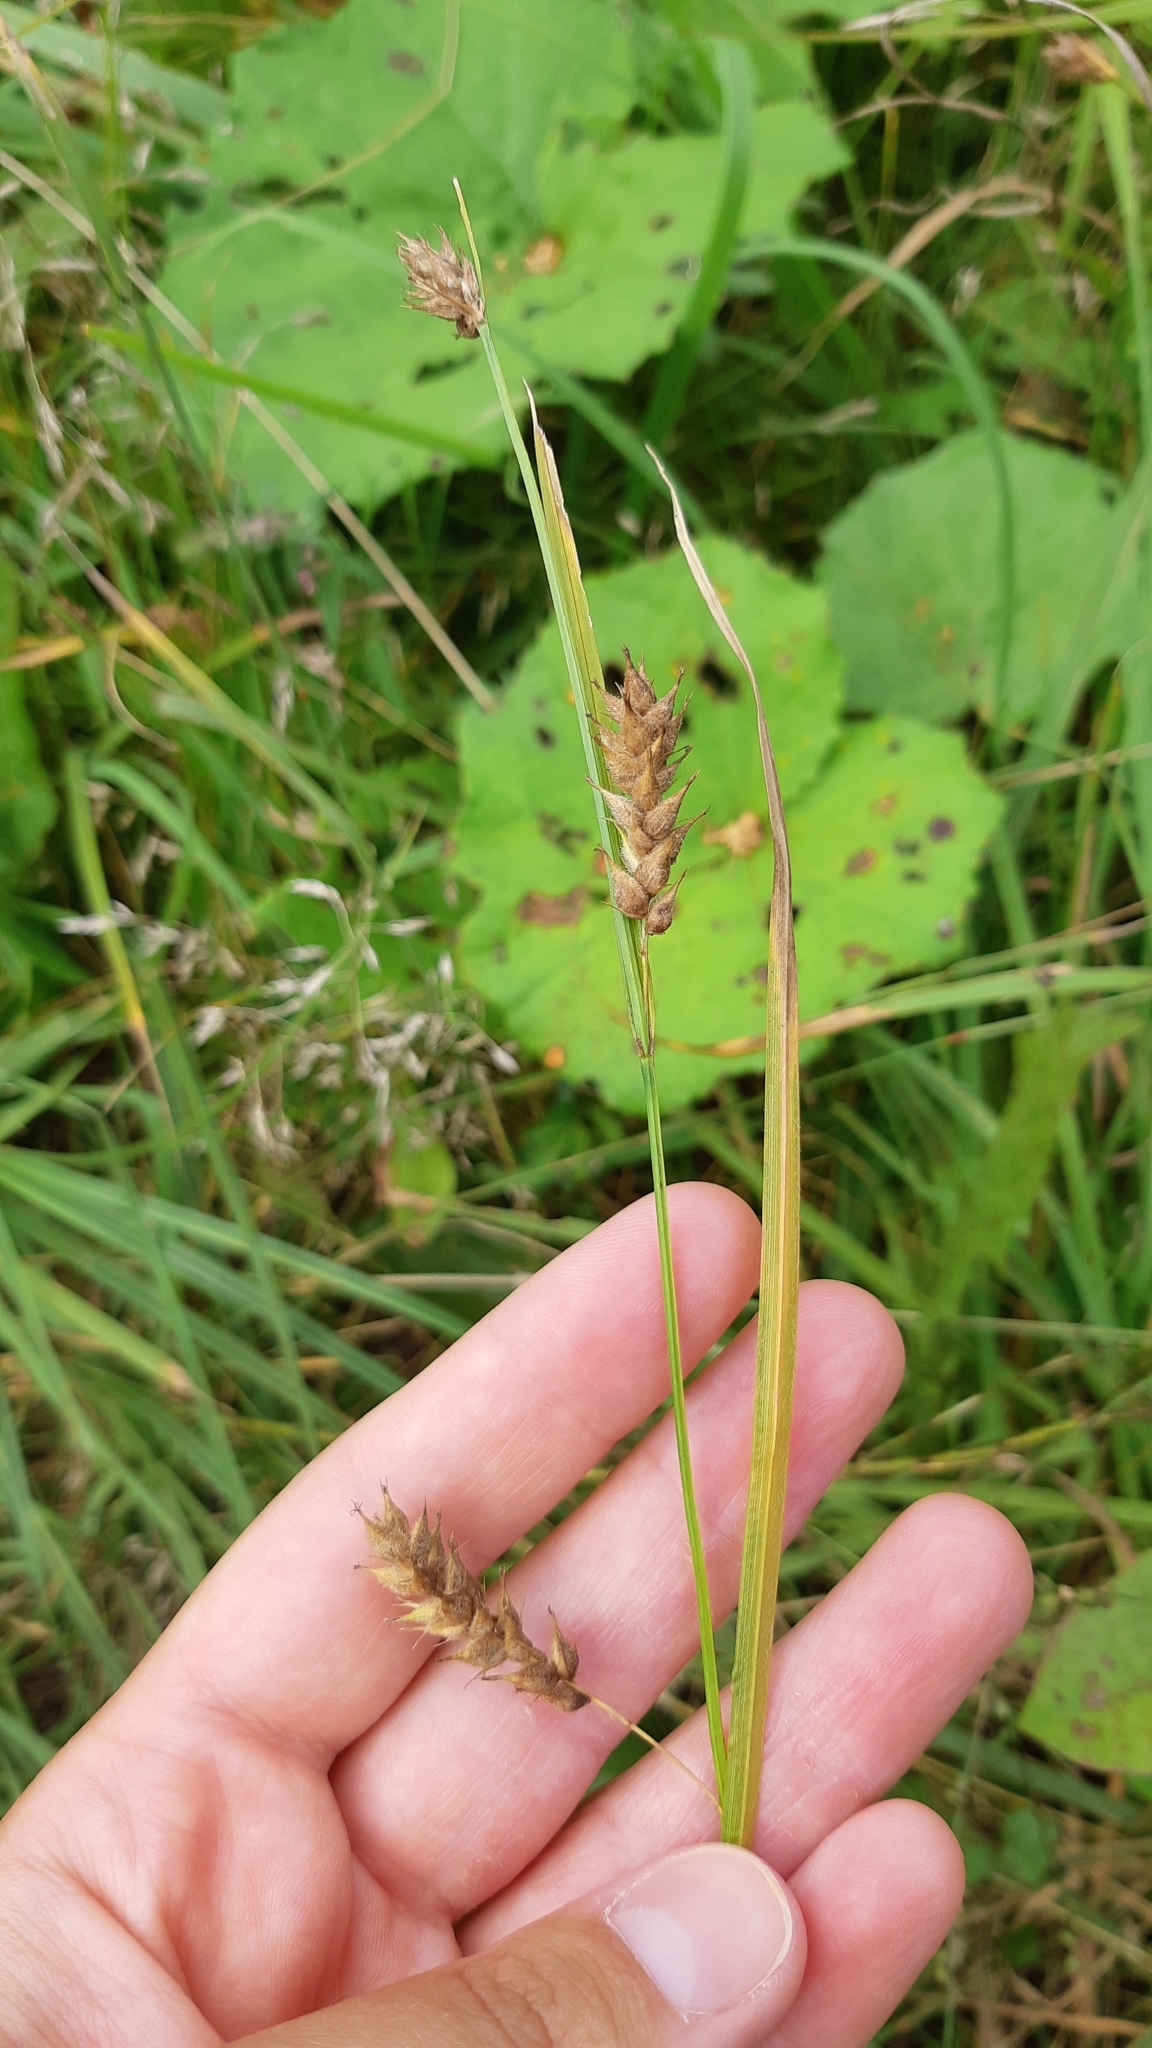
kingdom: Plantae
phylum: Tracheophyta
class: Liliopsida
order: Poales
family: Cyperaceae
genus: Carex
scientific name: Carex hirta
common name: Hairy sedge
